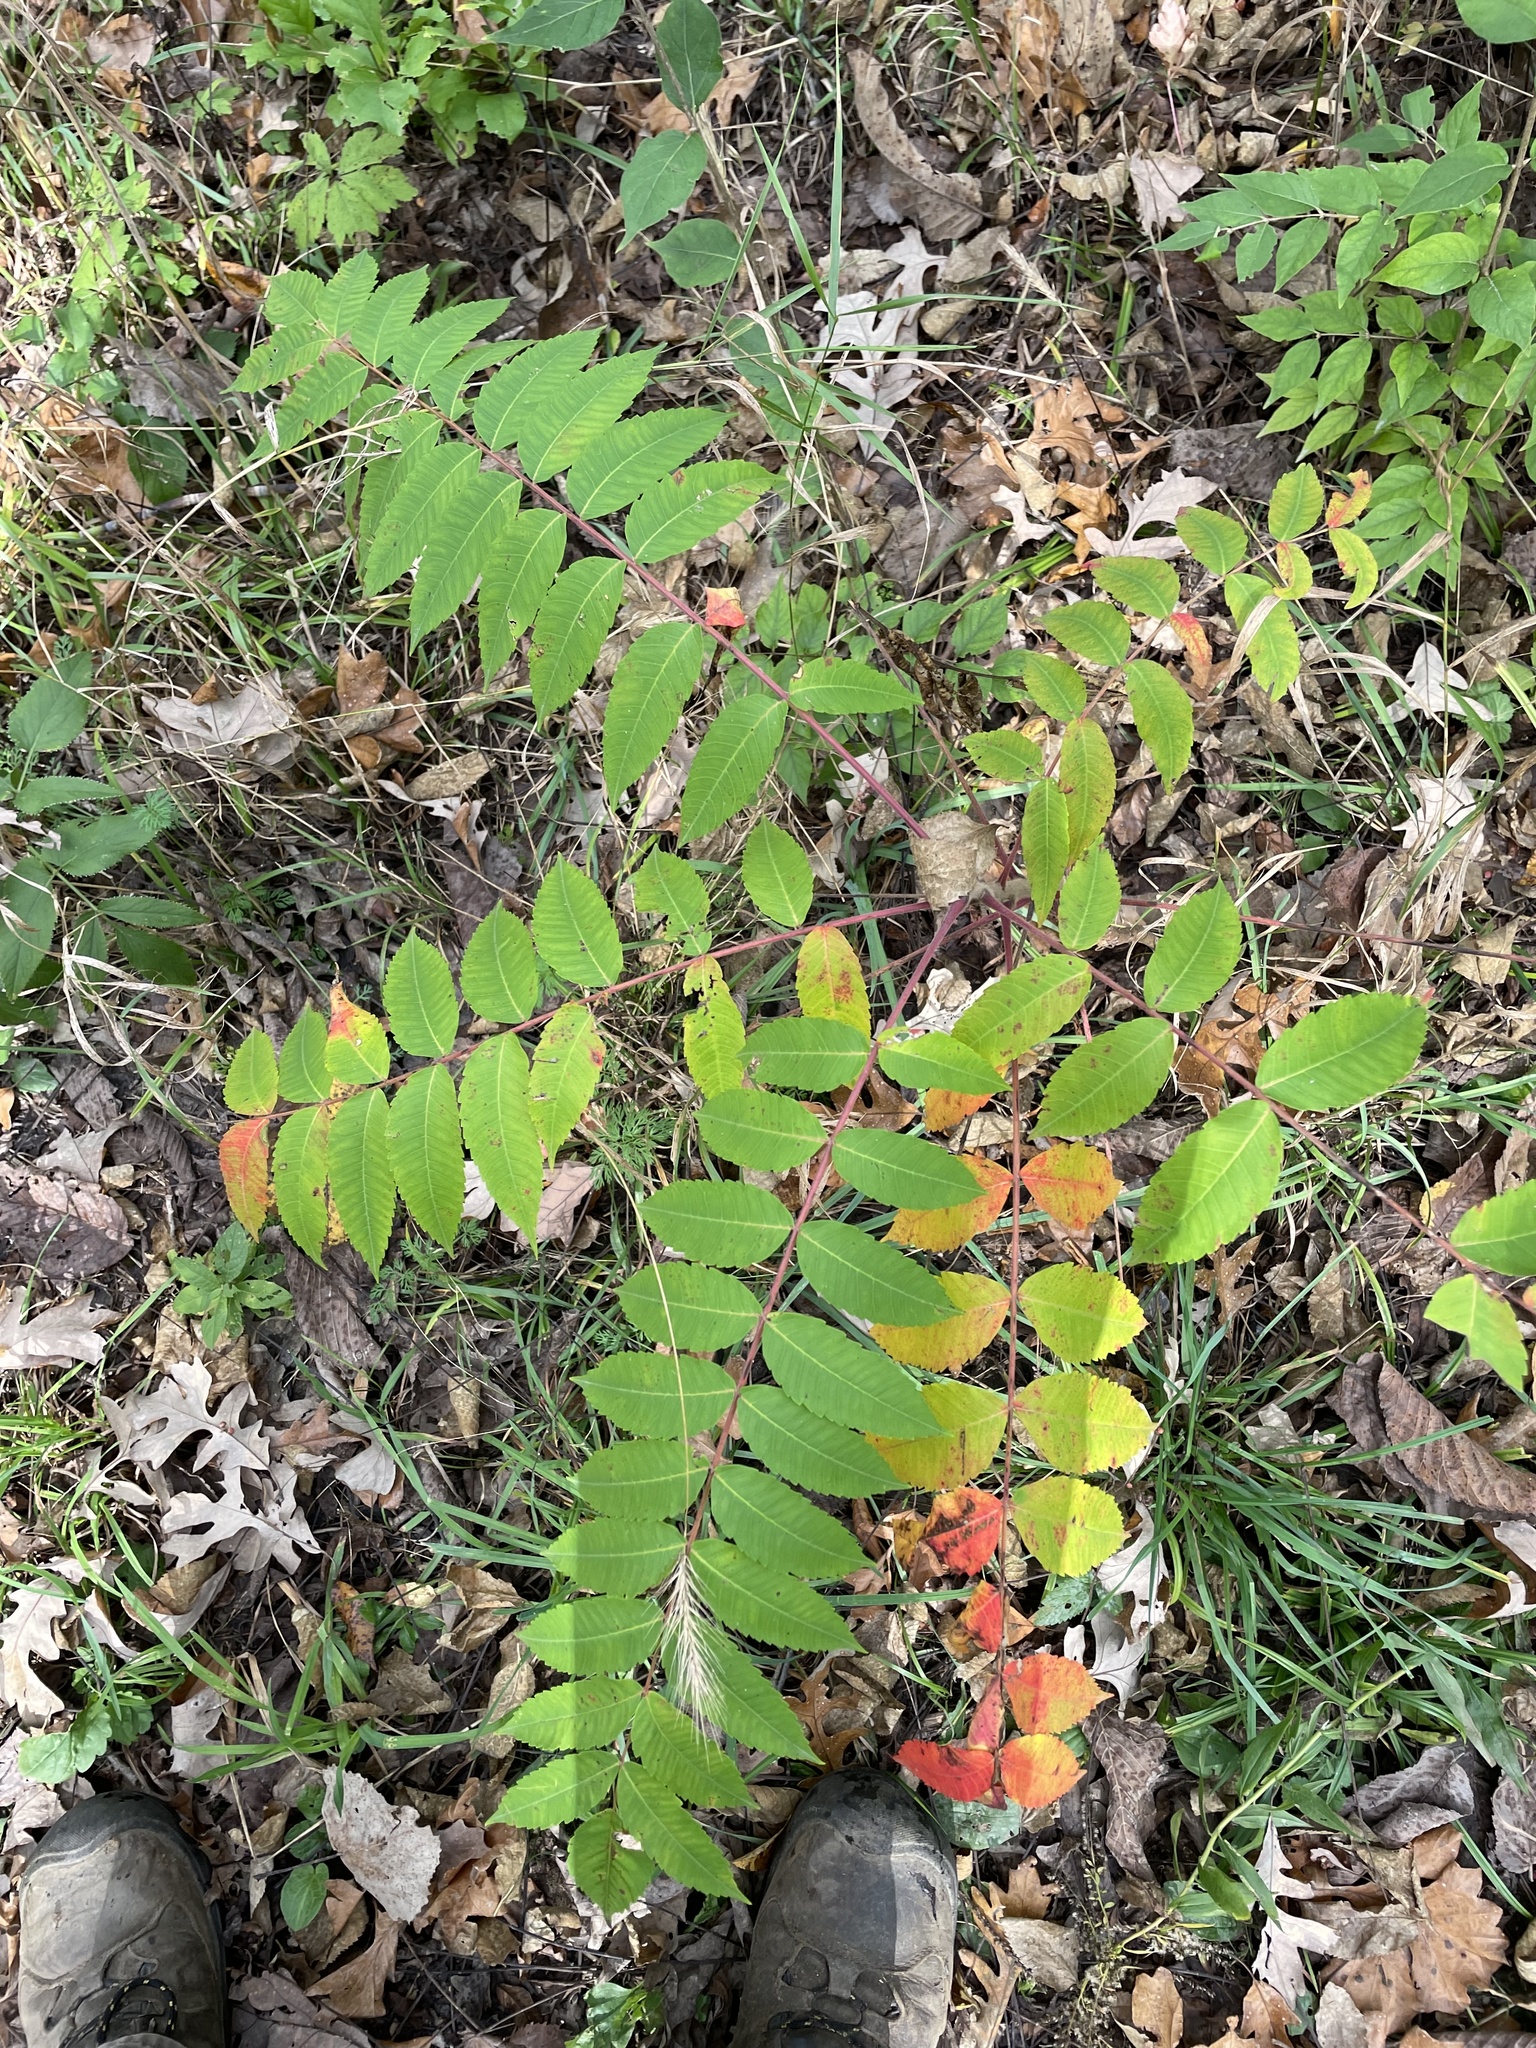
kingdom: Plantae
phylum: Tracheophyta
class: Magnoliopsida
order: Sapindales
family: Anacardiaceae
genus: Rhus
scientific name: Rhus typhina
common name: Staghorn sumac
